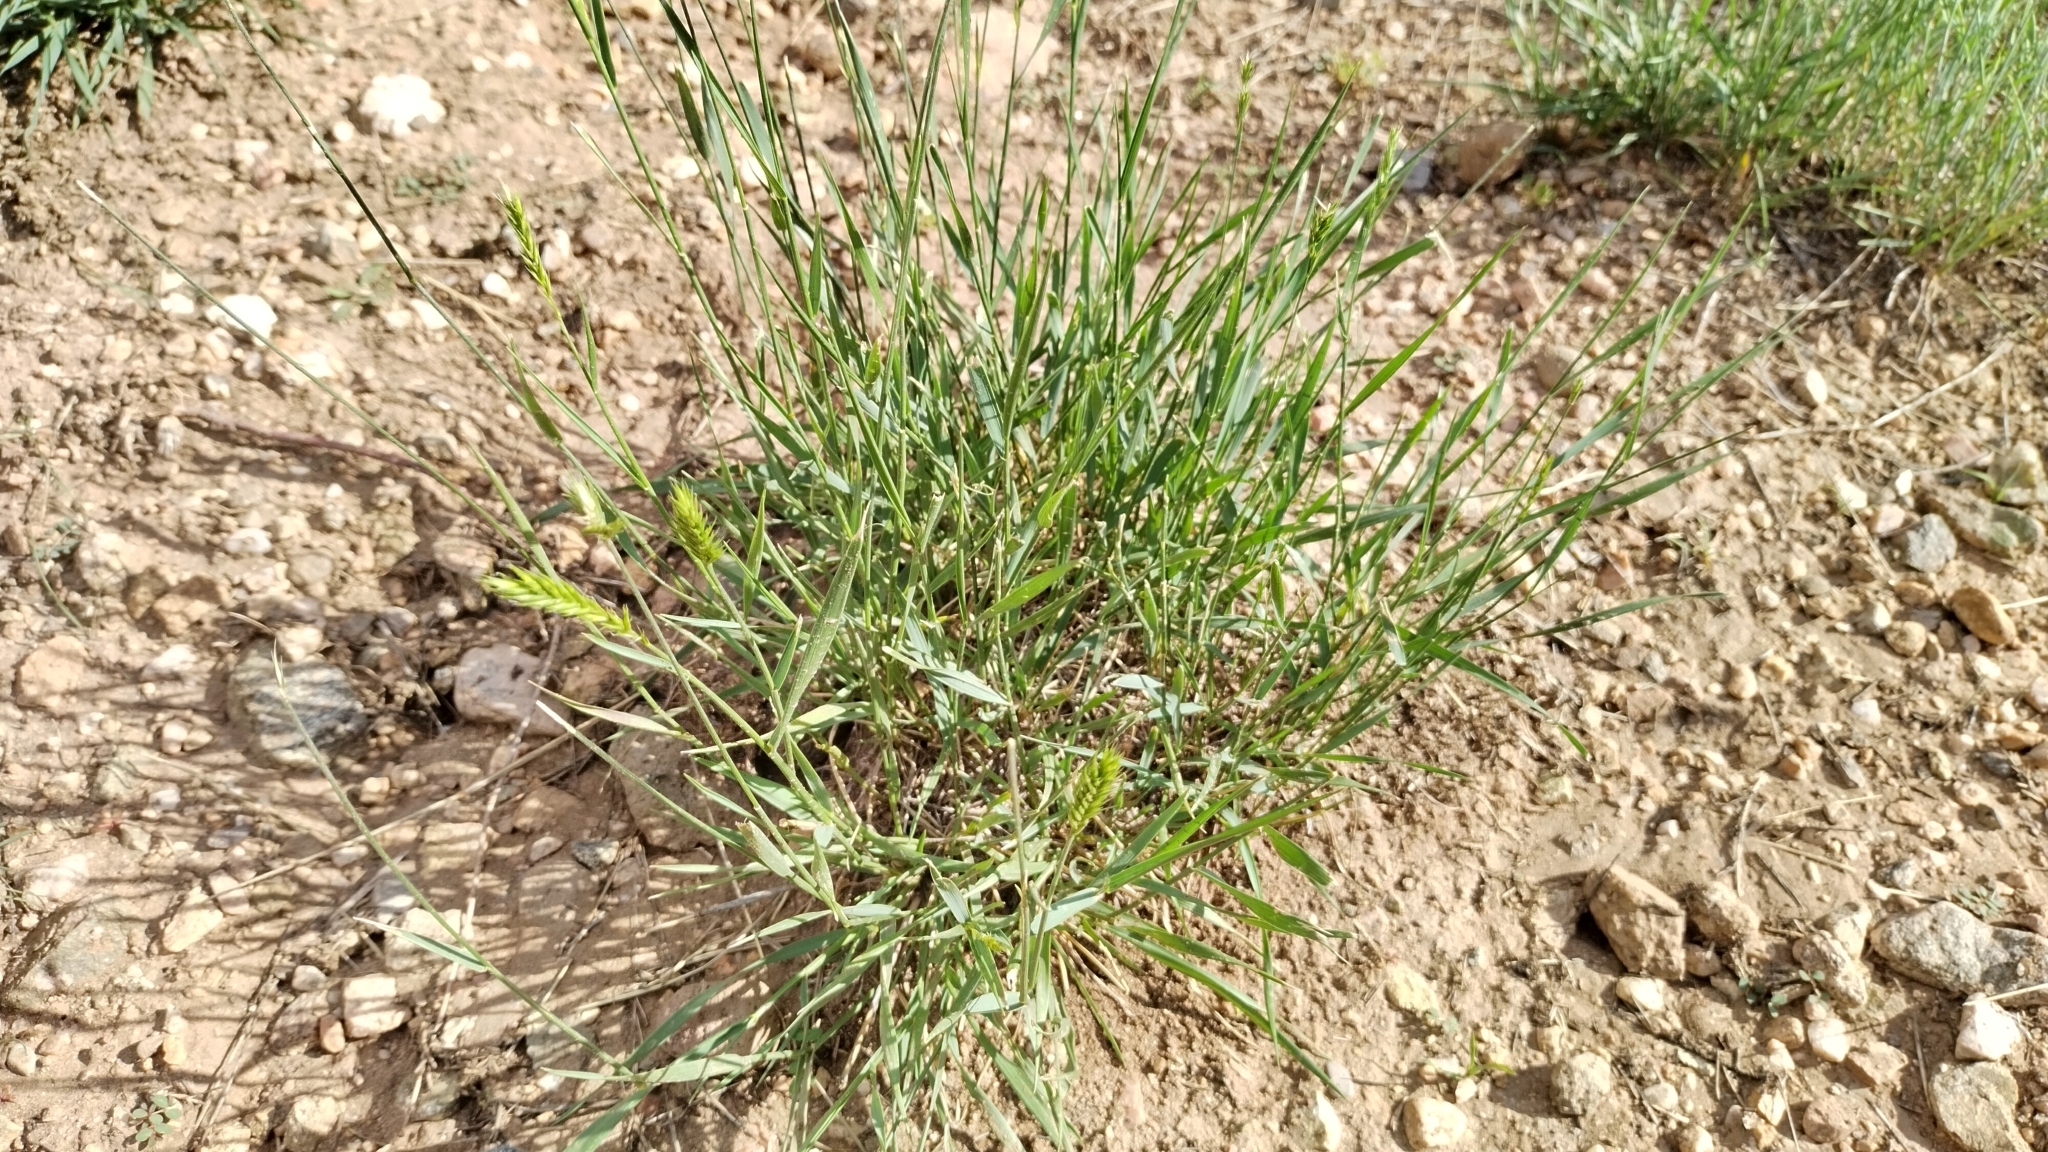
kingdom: Plantae
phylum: Tracheophyta
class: Liliopsida
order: Poales
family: Poaceae
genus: Agropyron
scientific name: Agropyron cristatum
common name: Crested wheatgrass
